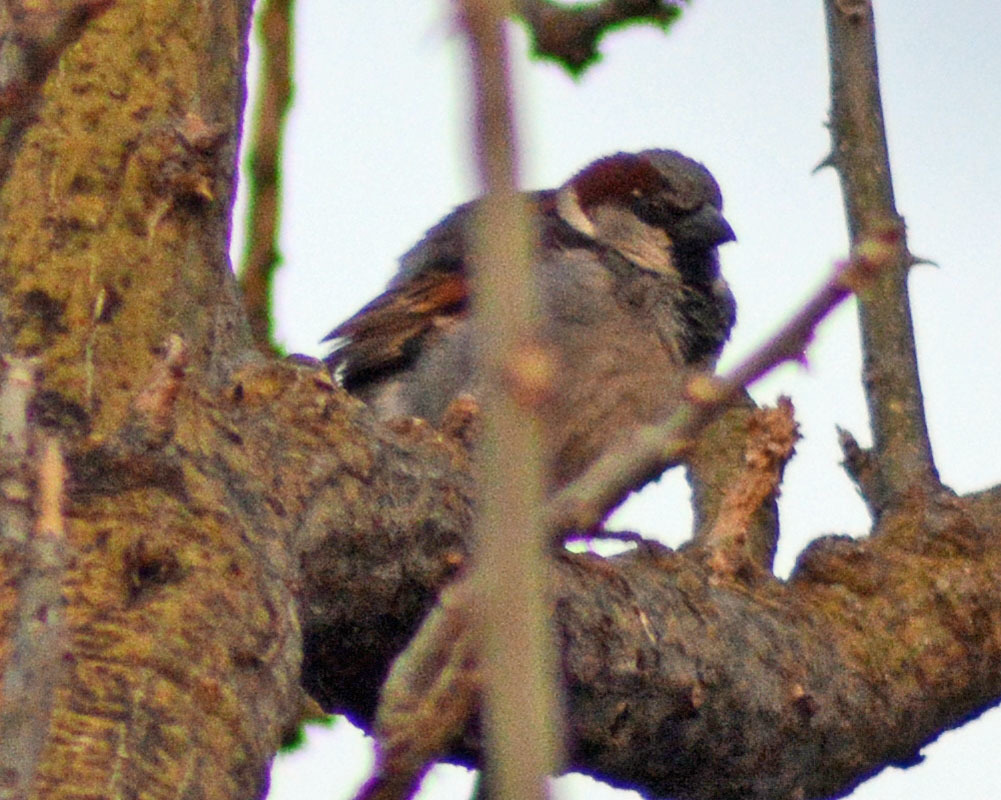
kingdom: Animalia
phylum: Chordata
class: Aves
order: Passeriformes
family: Passeridae
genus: Passer
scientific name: Passer domesticus
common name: House sparrow
